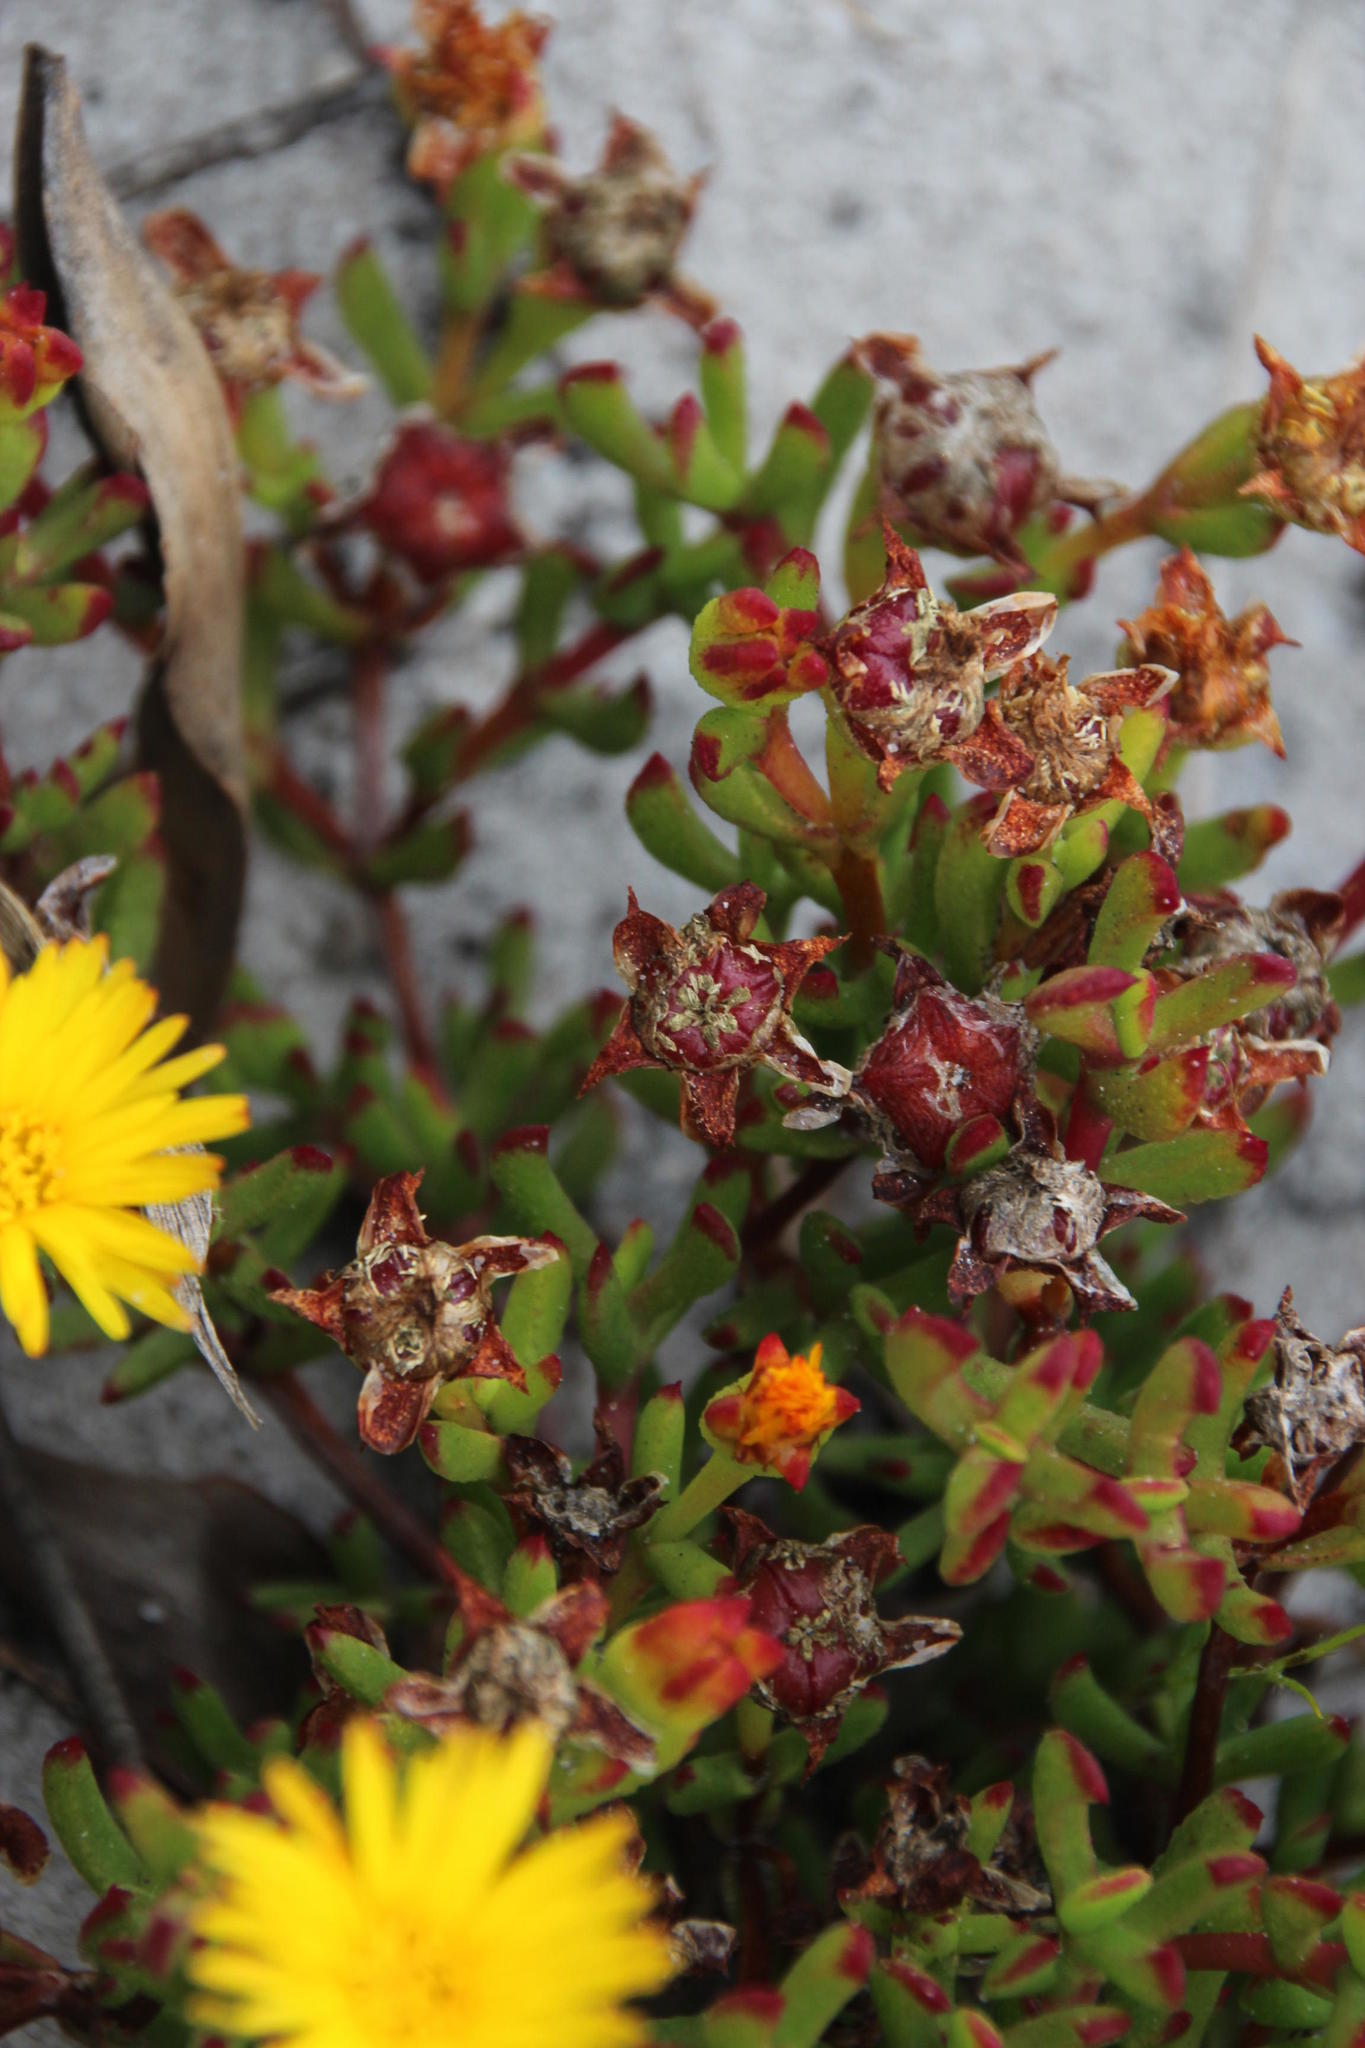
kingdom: Plantae
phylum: Tracheophyta
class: Magnoliopsida
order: Caryophyllales
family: Aizoaceae
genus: Lampranthus
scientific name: Lampranthus promontorii
